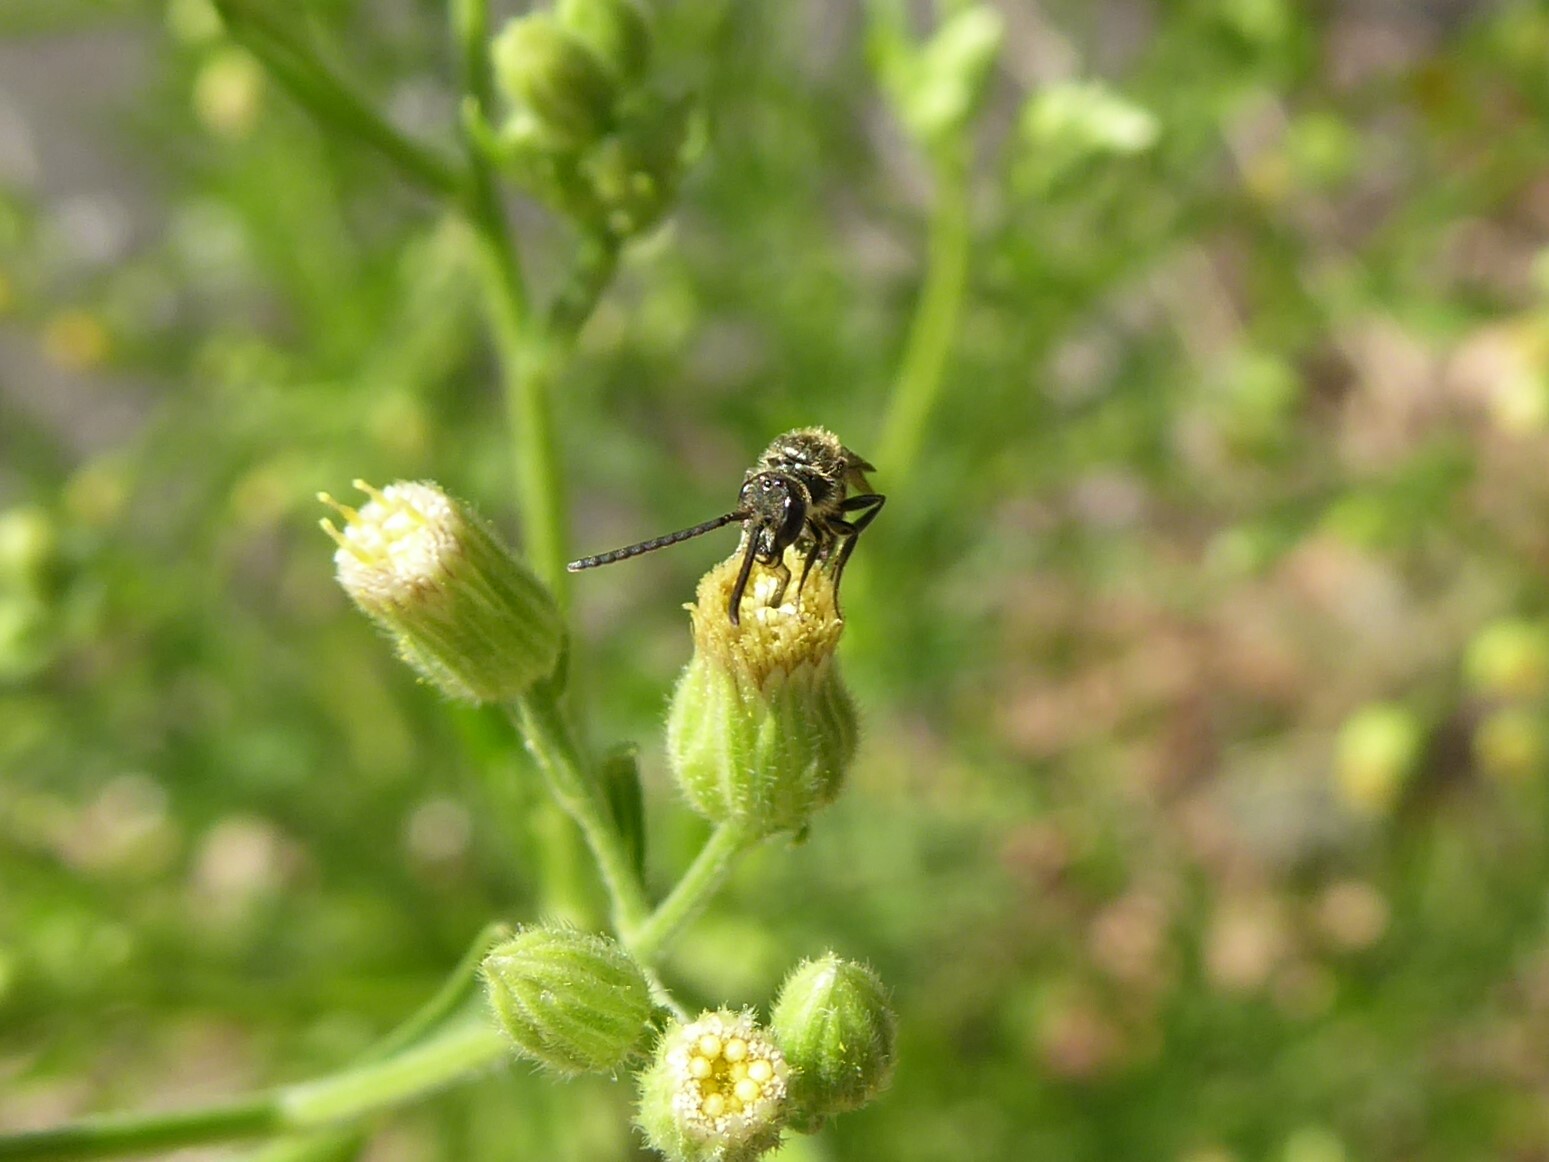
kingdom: Animalia
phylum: Arthropoda
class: Insecta
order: Hymenoptera
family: Halictidae
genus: Lasioglossum
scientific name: Lasioglossum
